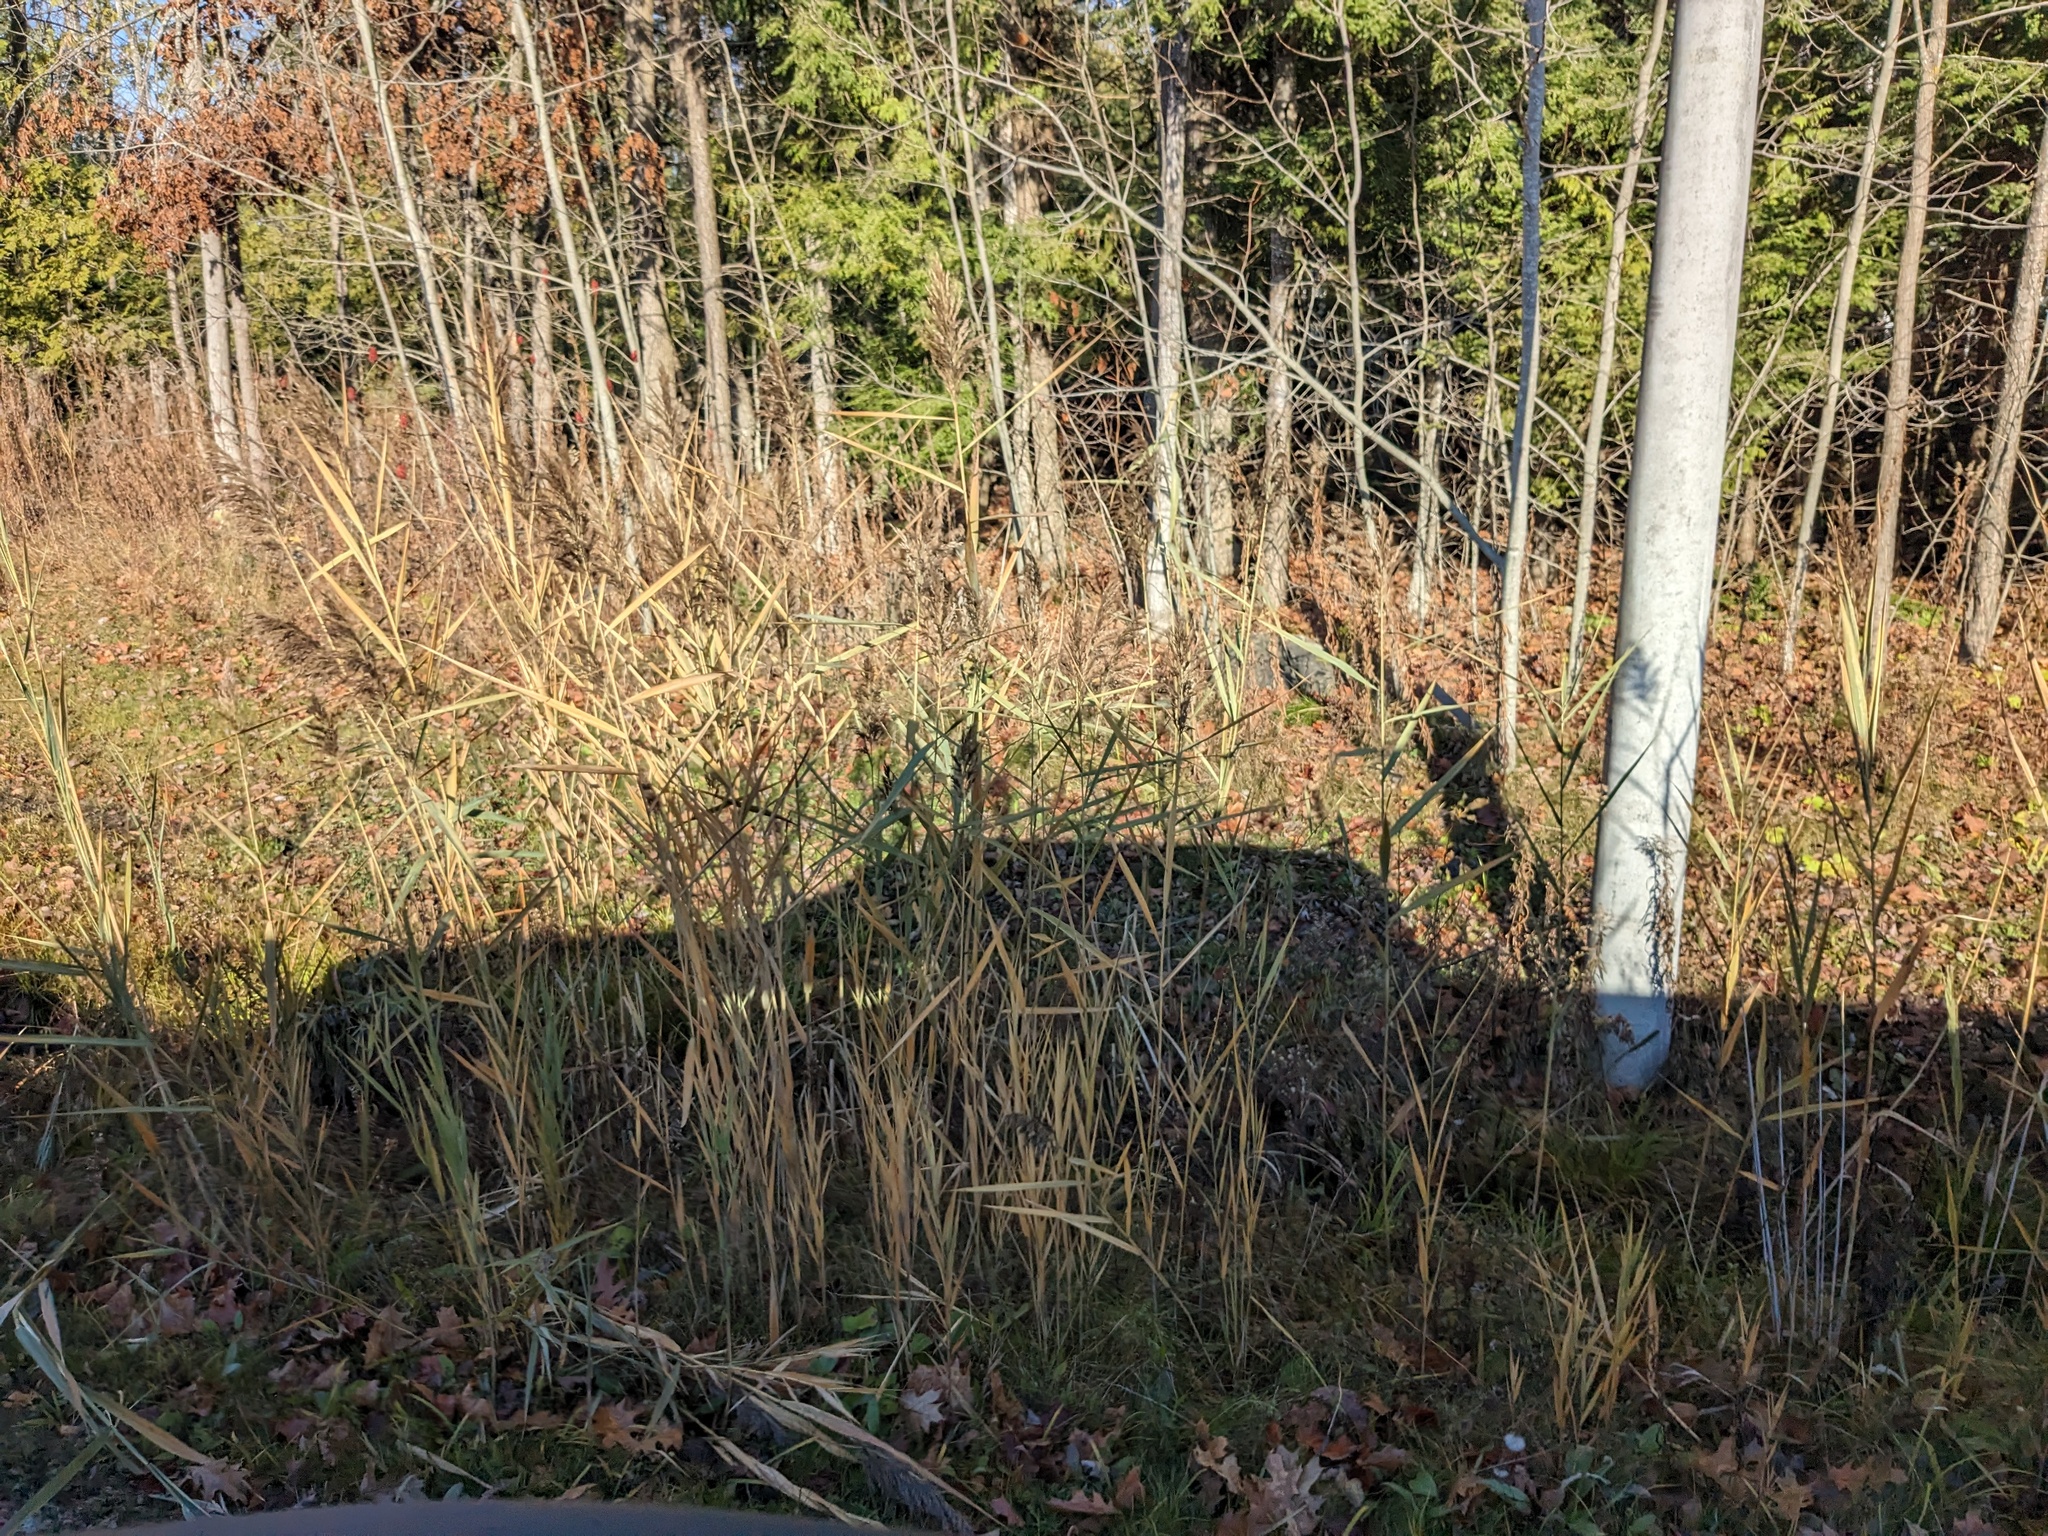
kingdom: Plantae
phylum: Tracheophyta
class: Liliopsida
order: Poales
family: Poaceae
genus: Phragmites
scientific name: Phragmites australis
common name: Common reed
